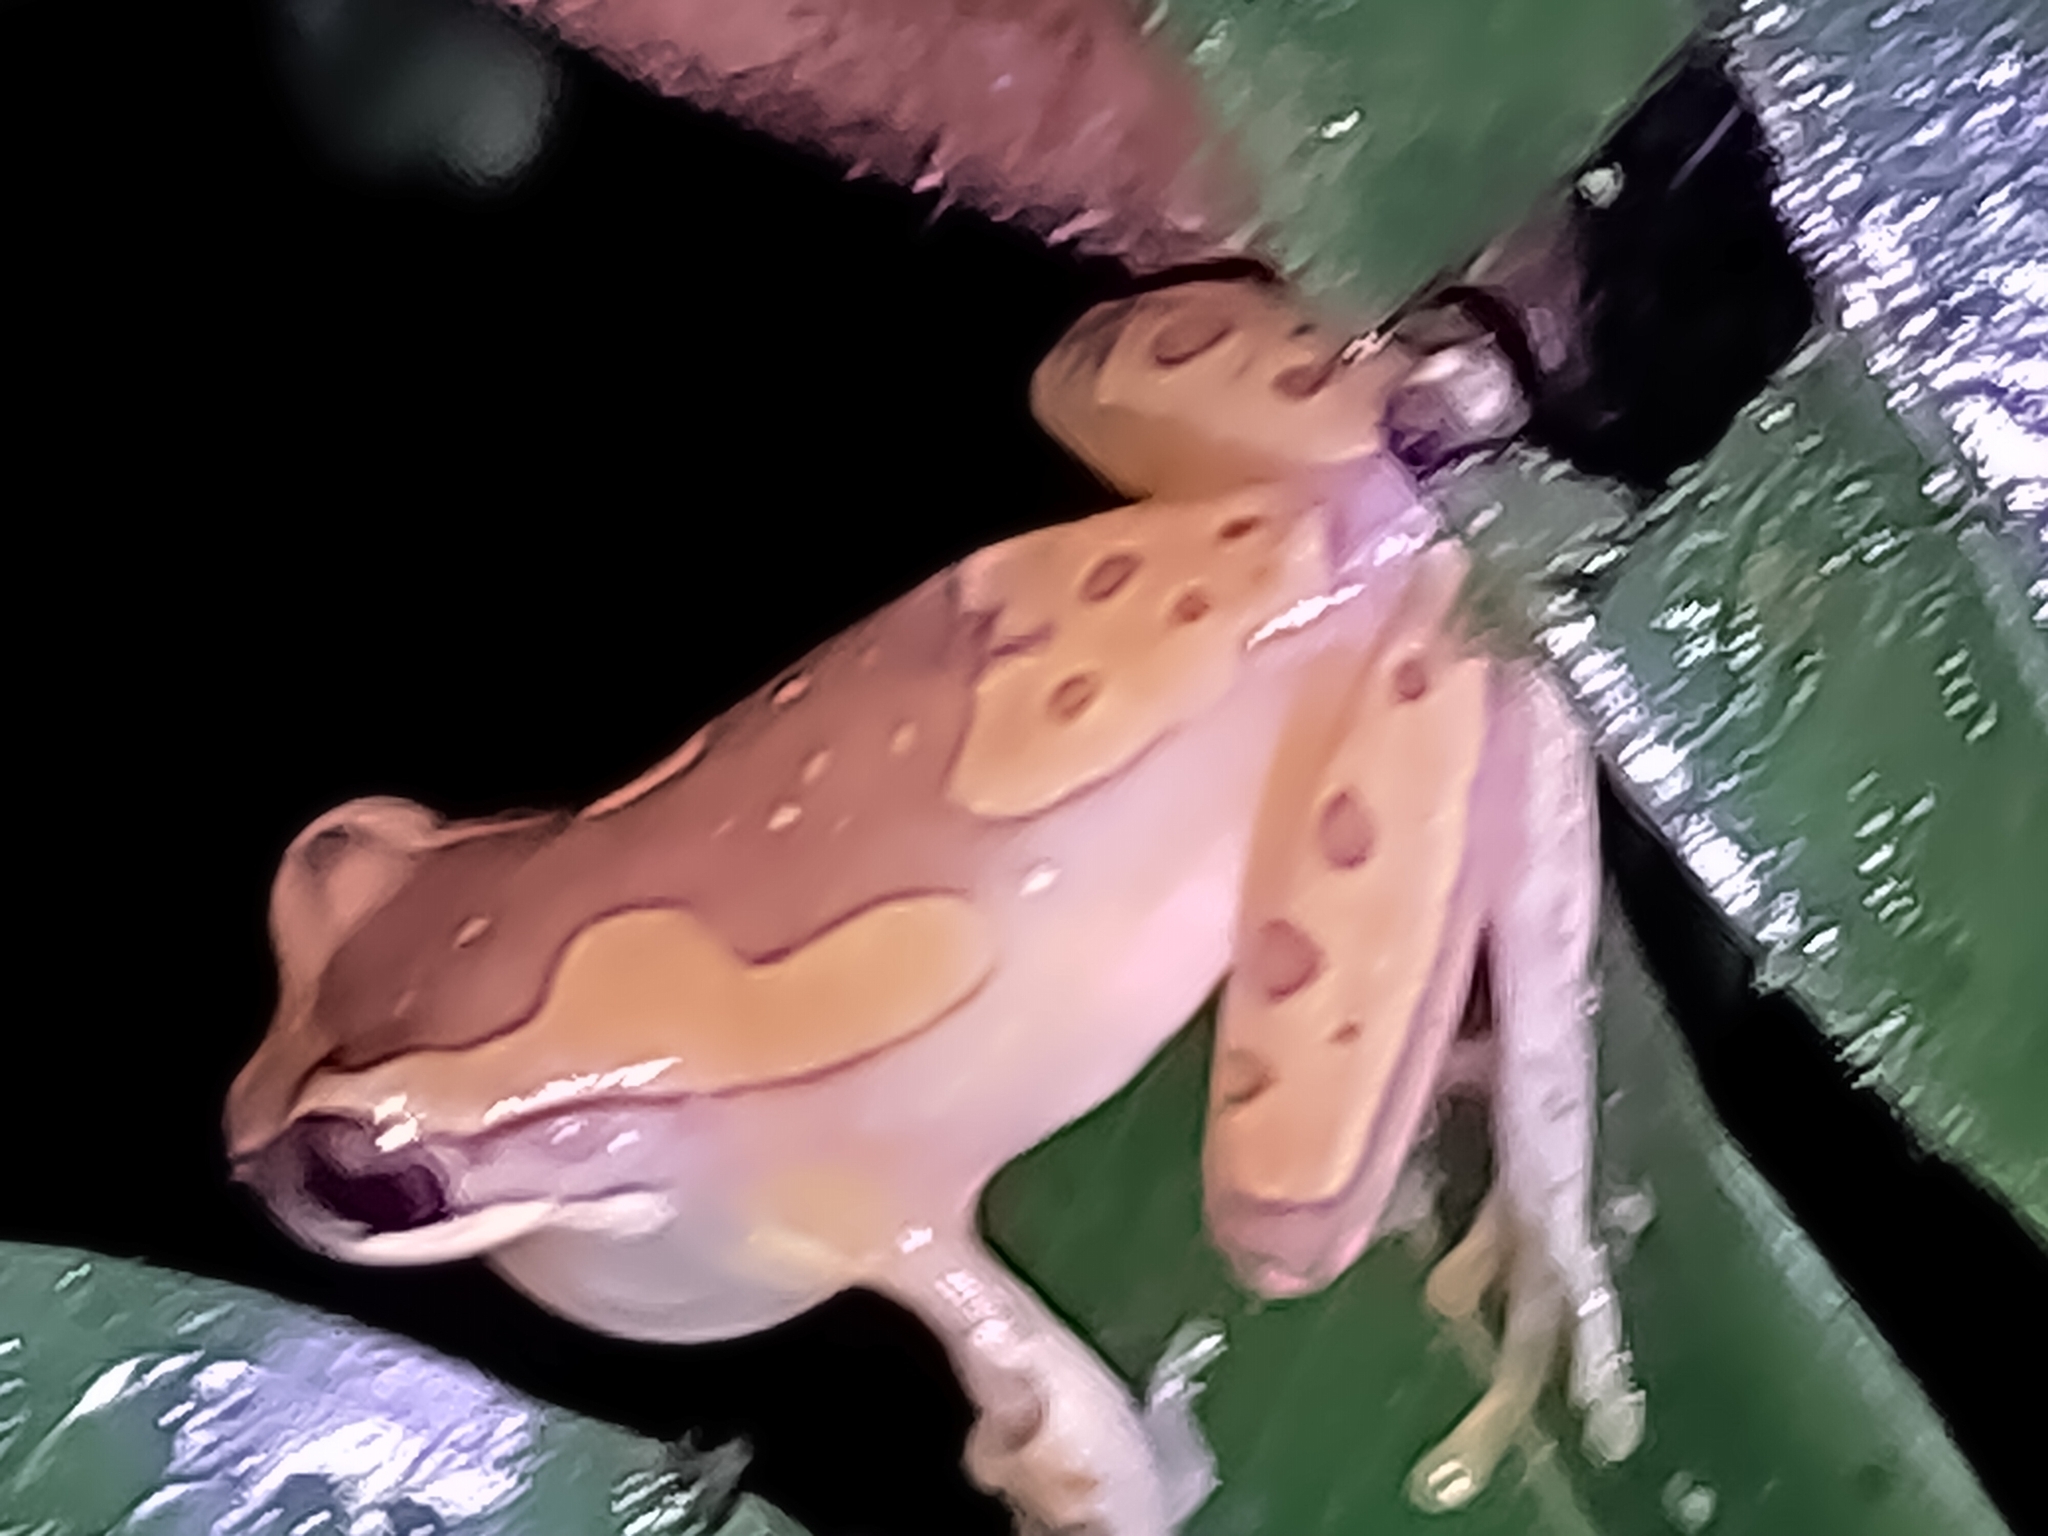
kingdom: Animalia
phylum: Chordata
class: Amphibia
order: Anura
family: Hylidae
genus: Dendropsophus
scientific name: Dendropsophus ebraccatus
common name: Hourglass treefrog
